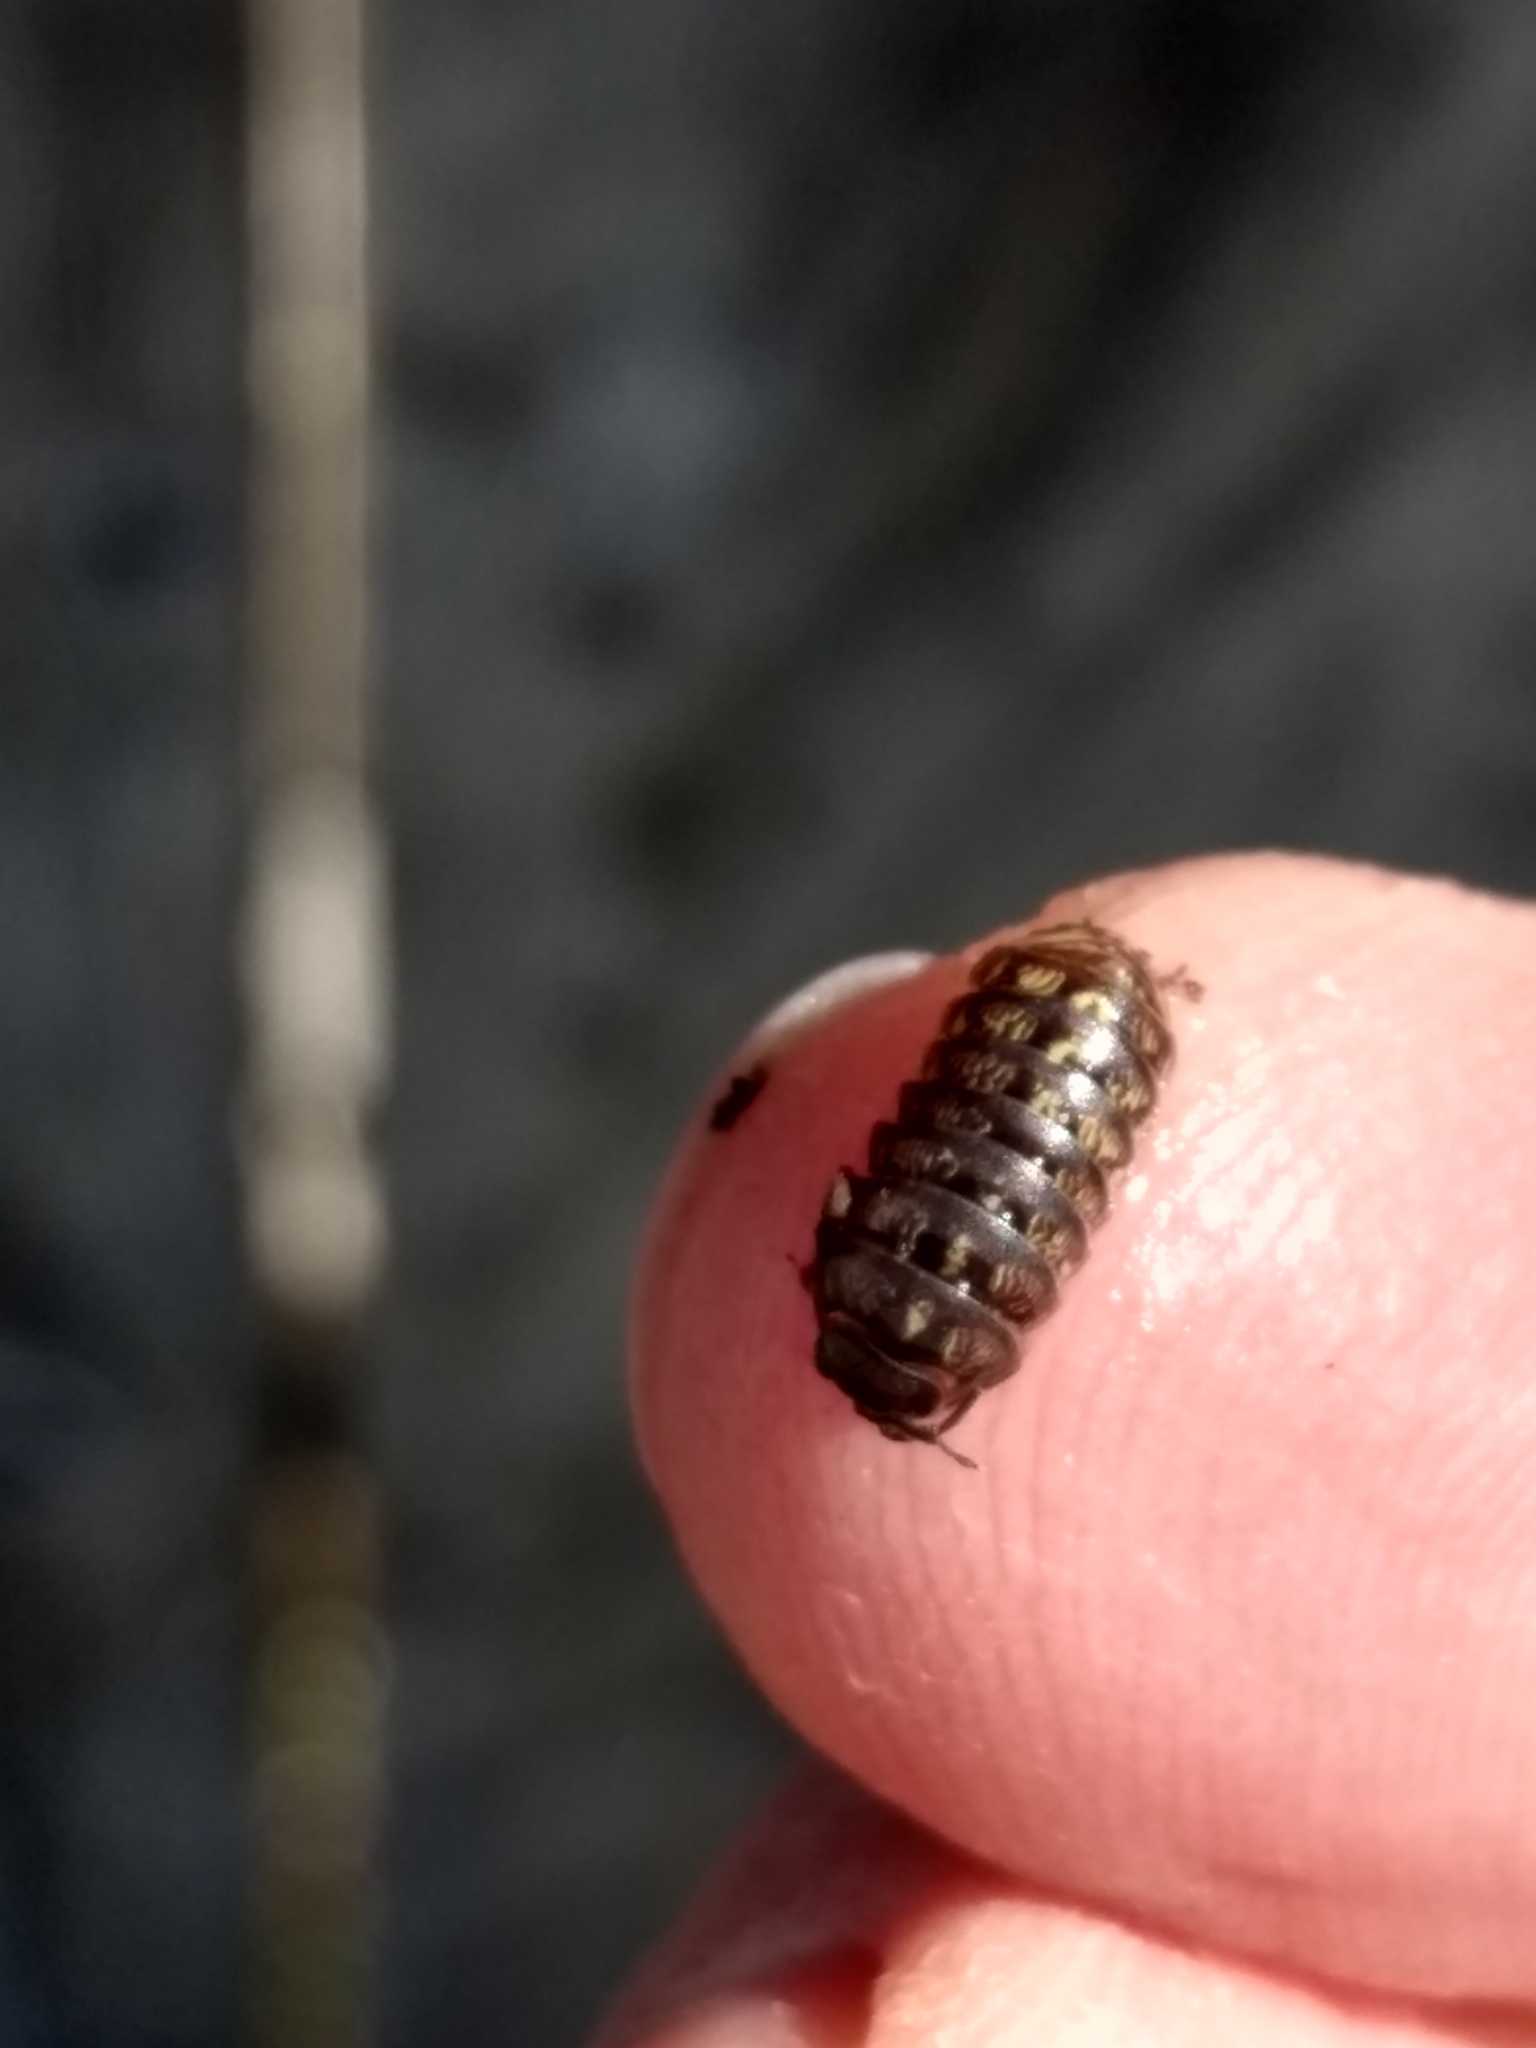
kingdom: Animalia
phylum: Arthropoda
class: Malacostraca
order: Isopoda
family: Armadillidiidae
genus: Armadillidium
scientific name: Armadillidium vulgare
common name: Common pill woodlouse
